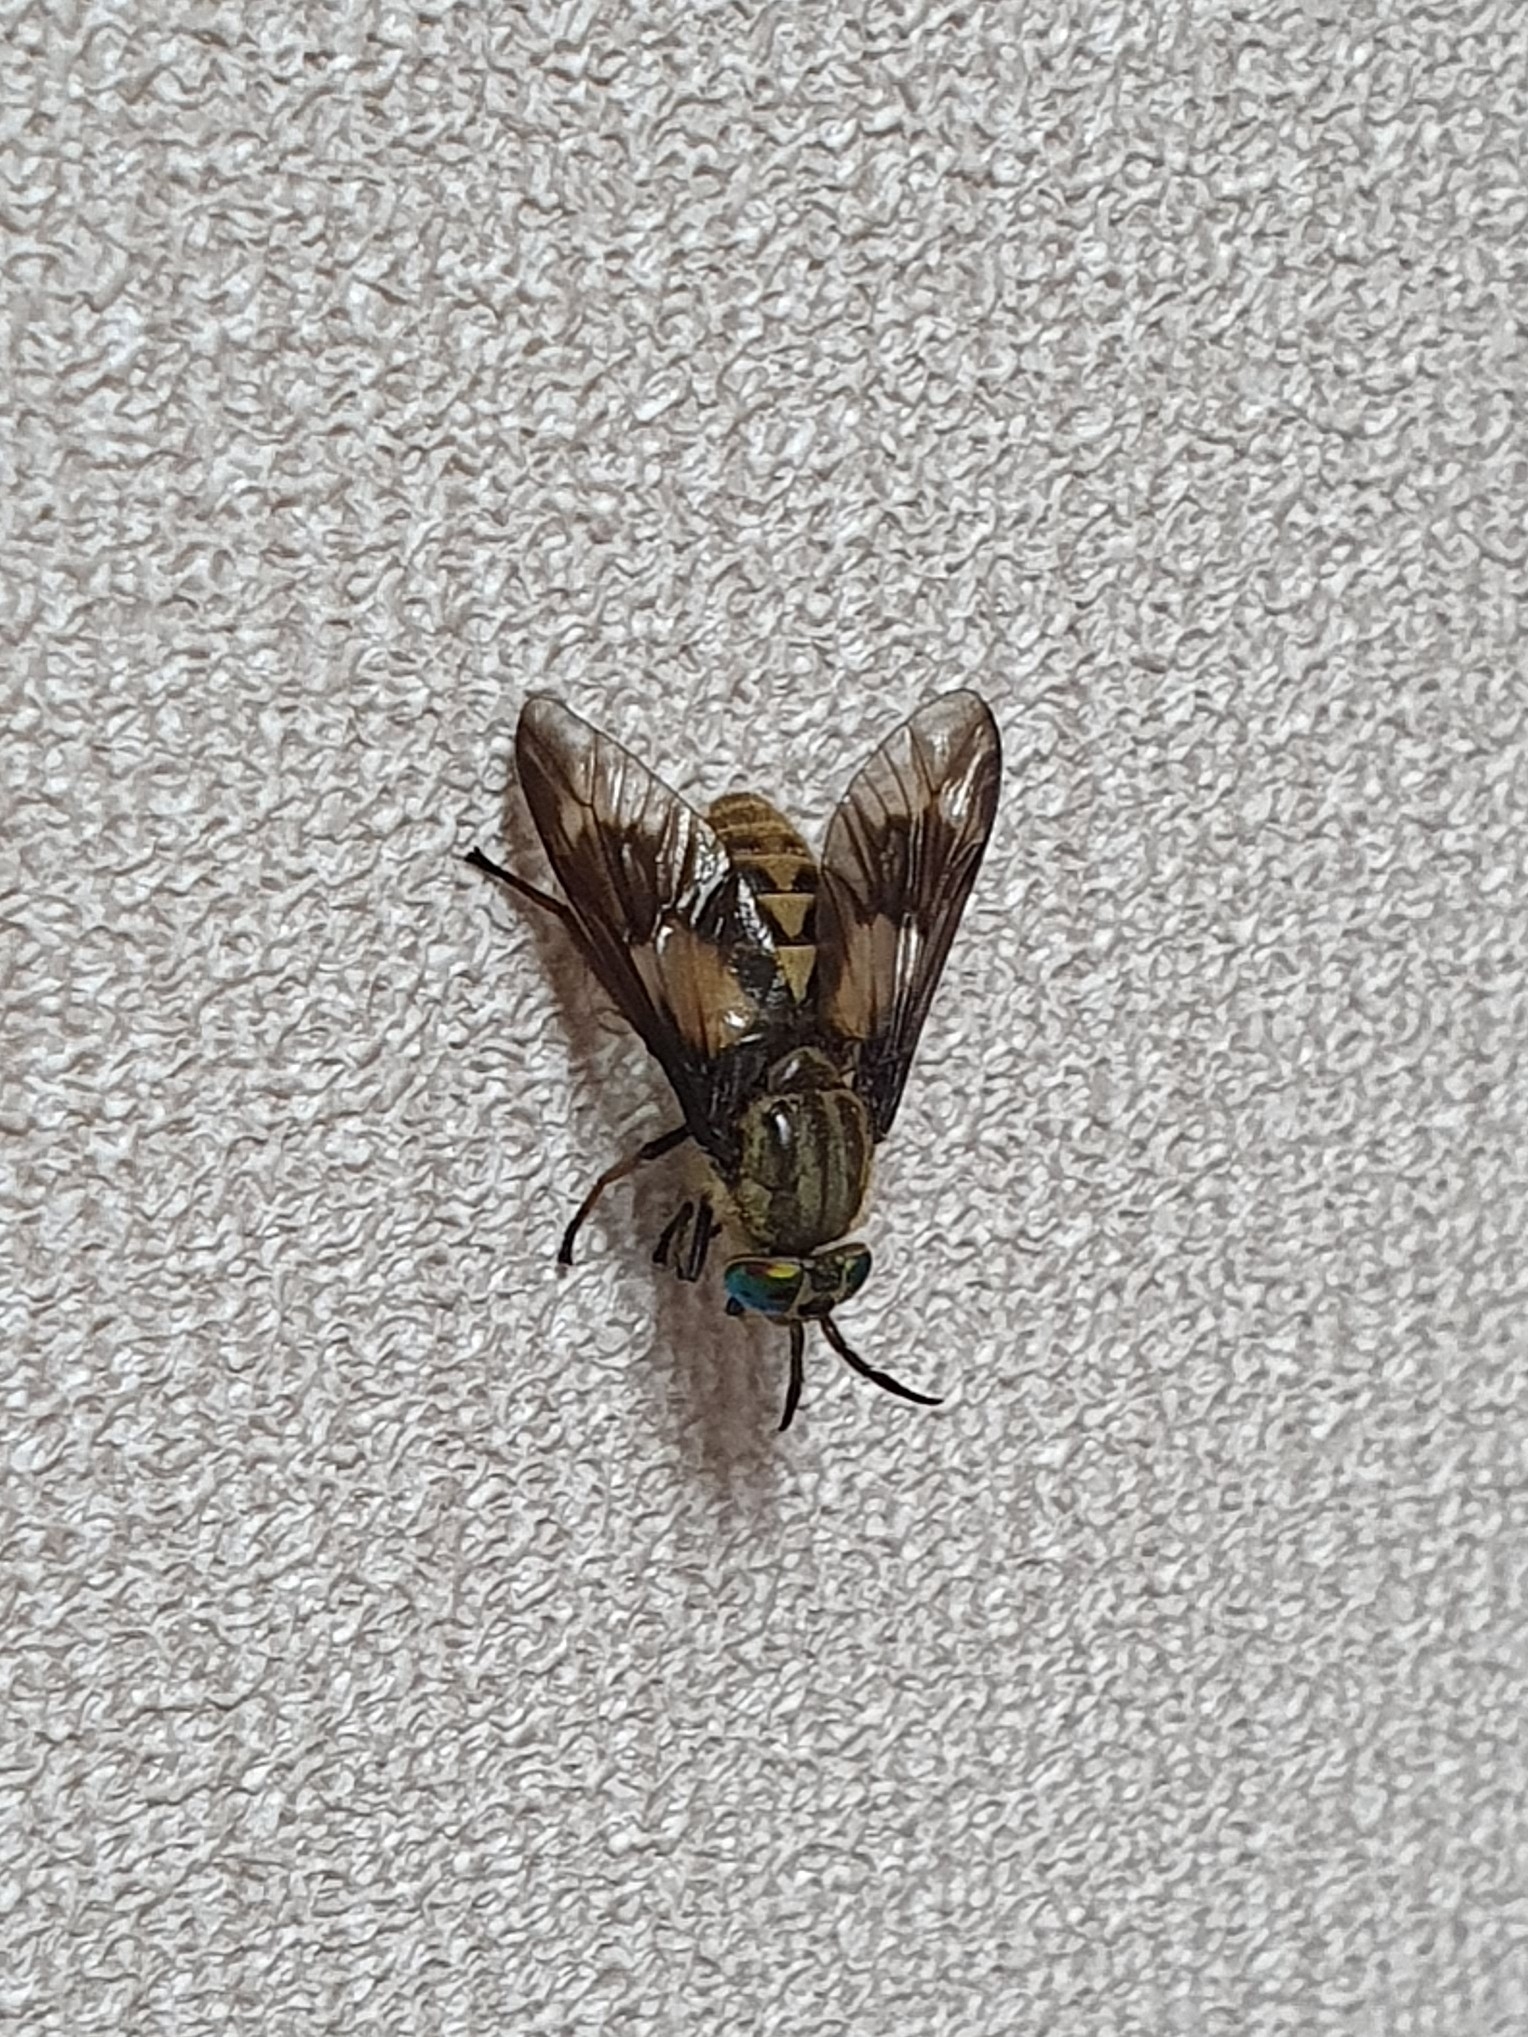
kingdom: Animalia
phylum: Arthropoda
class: Insecta
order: Diptera
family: Tabanidae
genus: Chrysops
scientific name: Chrysops relictus
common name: Twin-lobed deerfly
